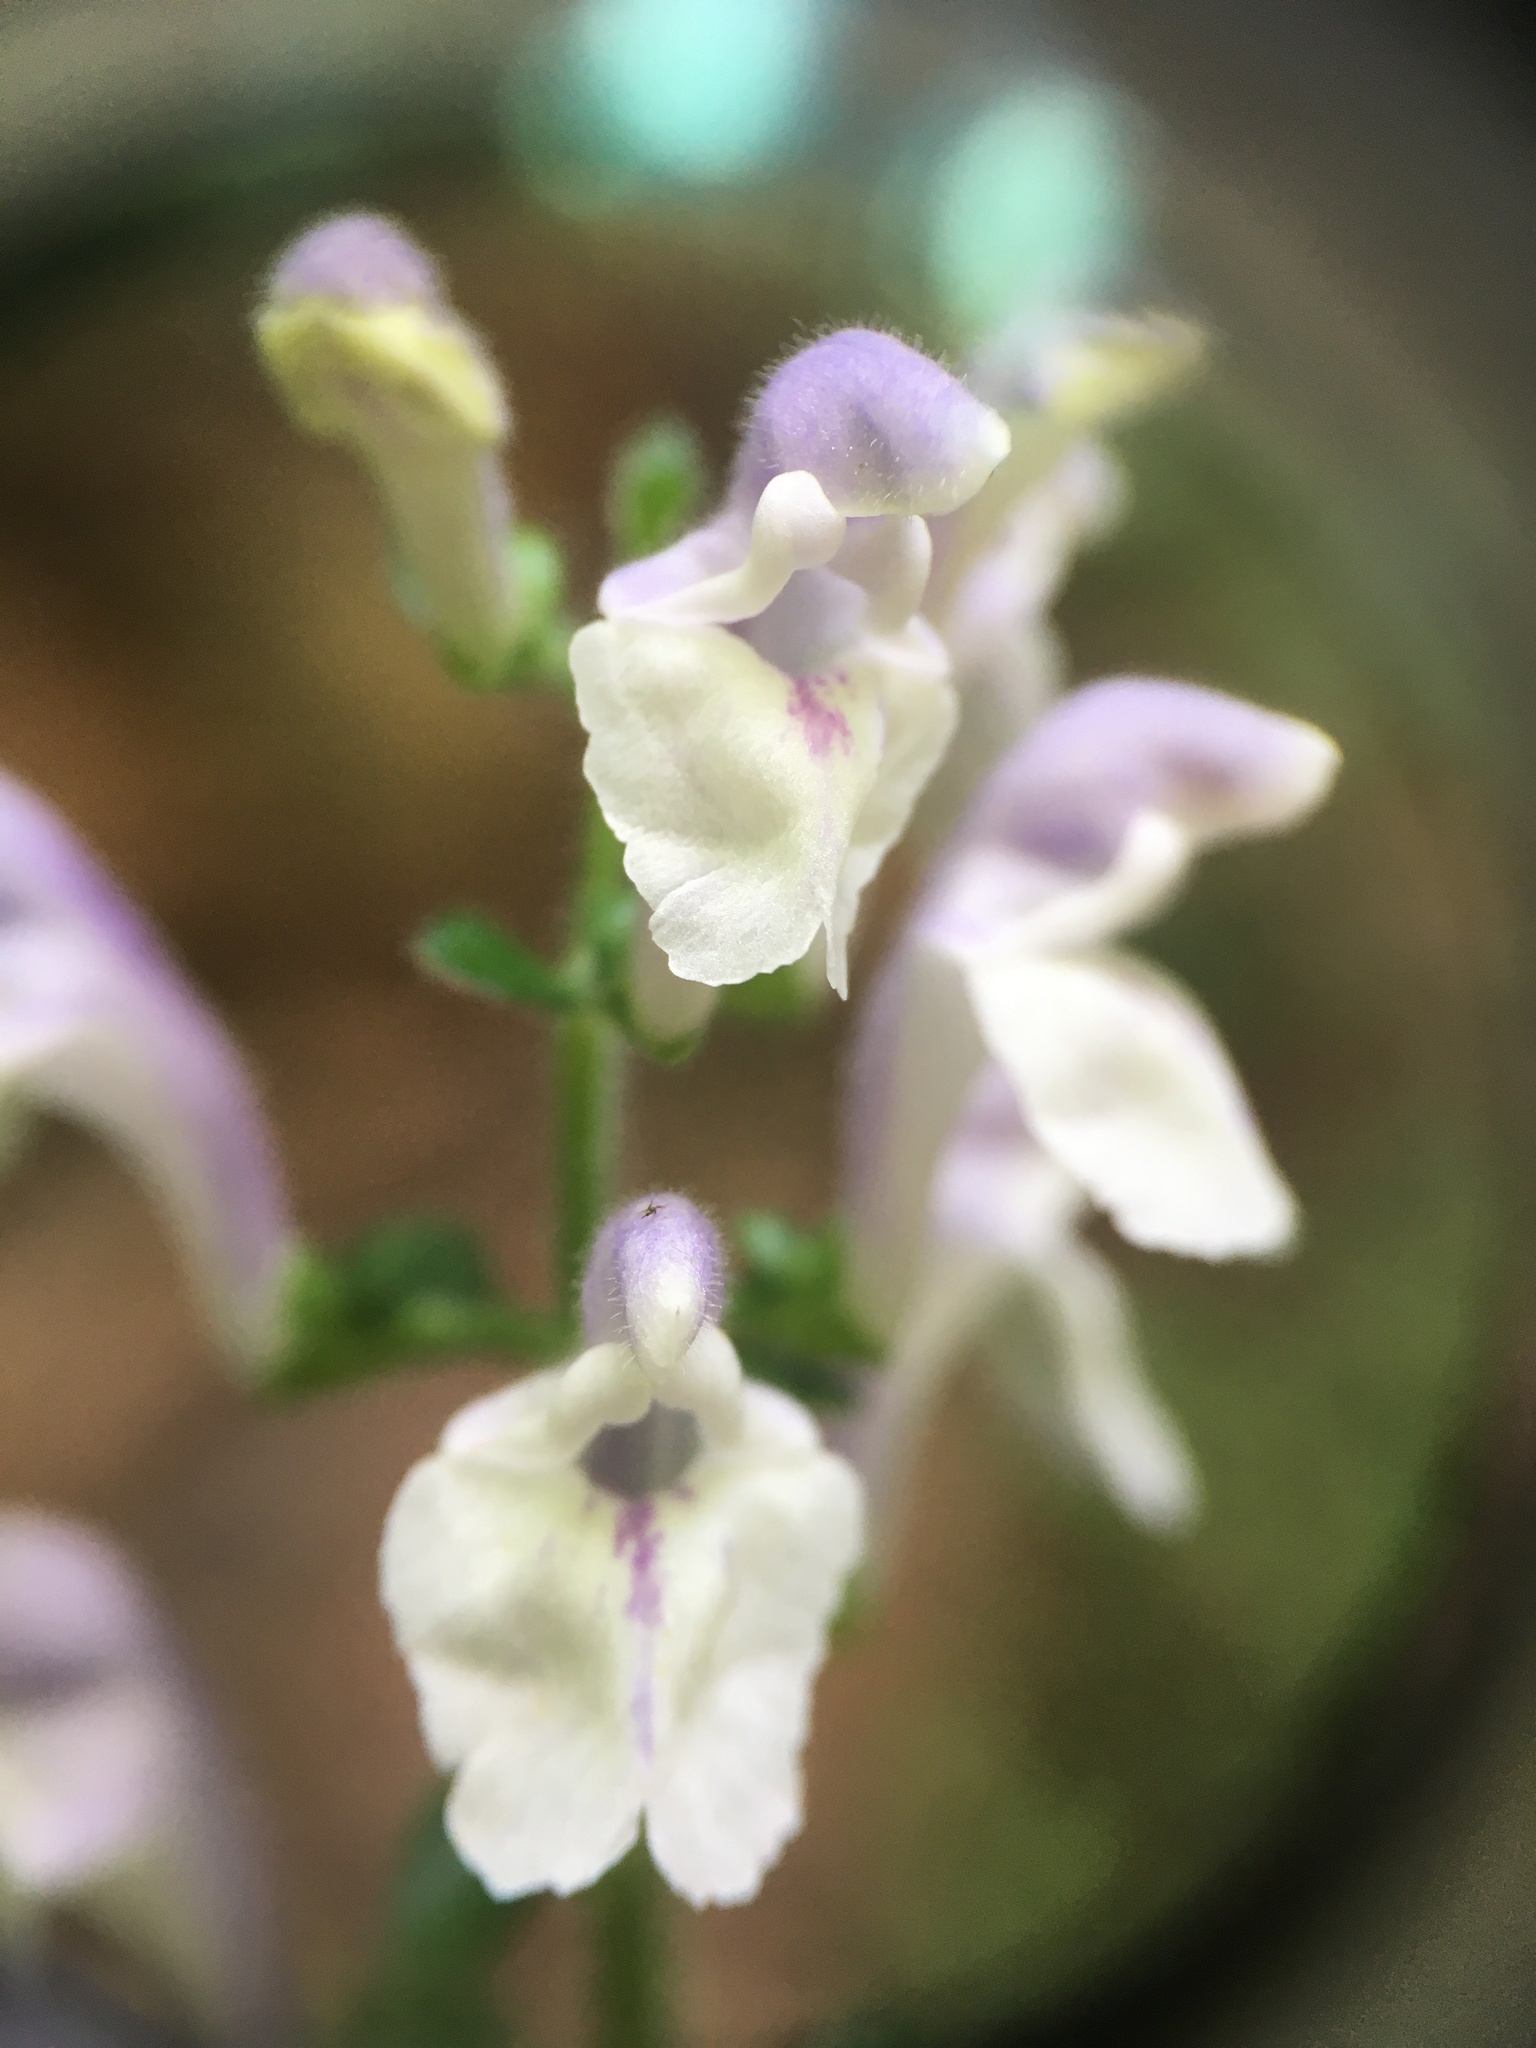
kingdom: Plantae
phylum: Tracheophyta
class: Magnoliopsida
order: Lamiales
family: Lamiaceae
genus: Scutellaria
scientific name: Scutellaria elliptica
